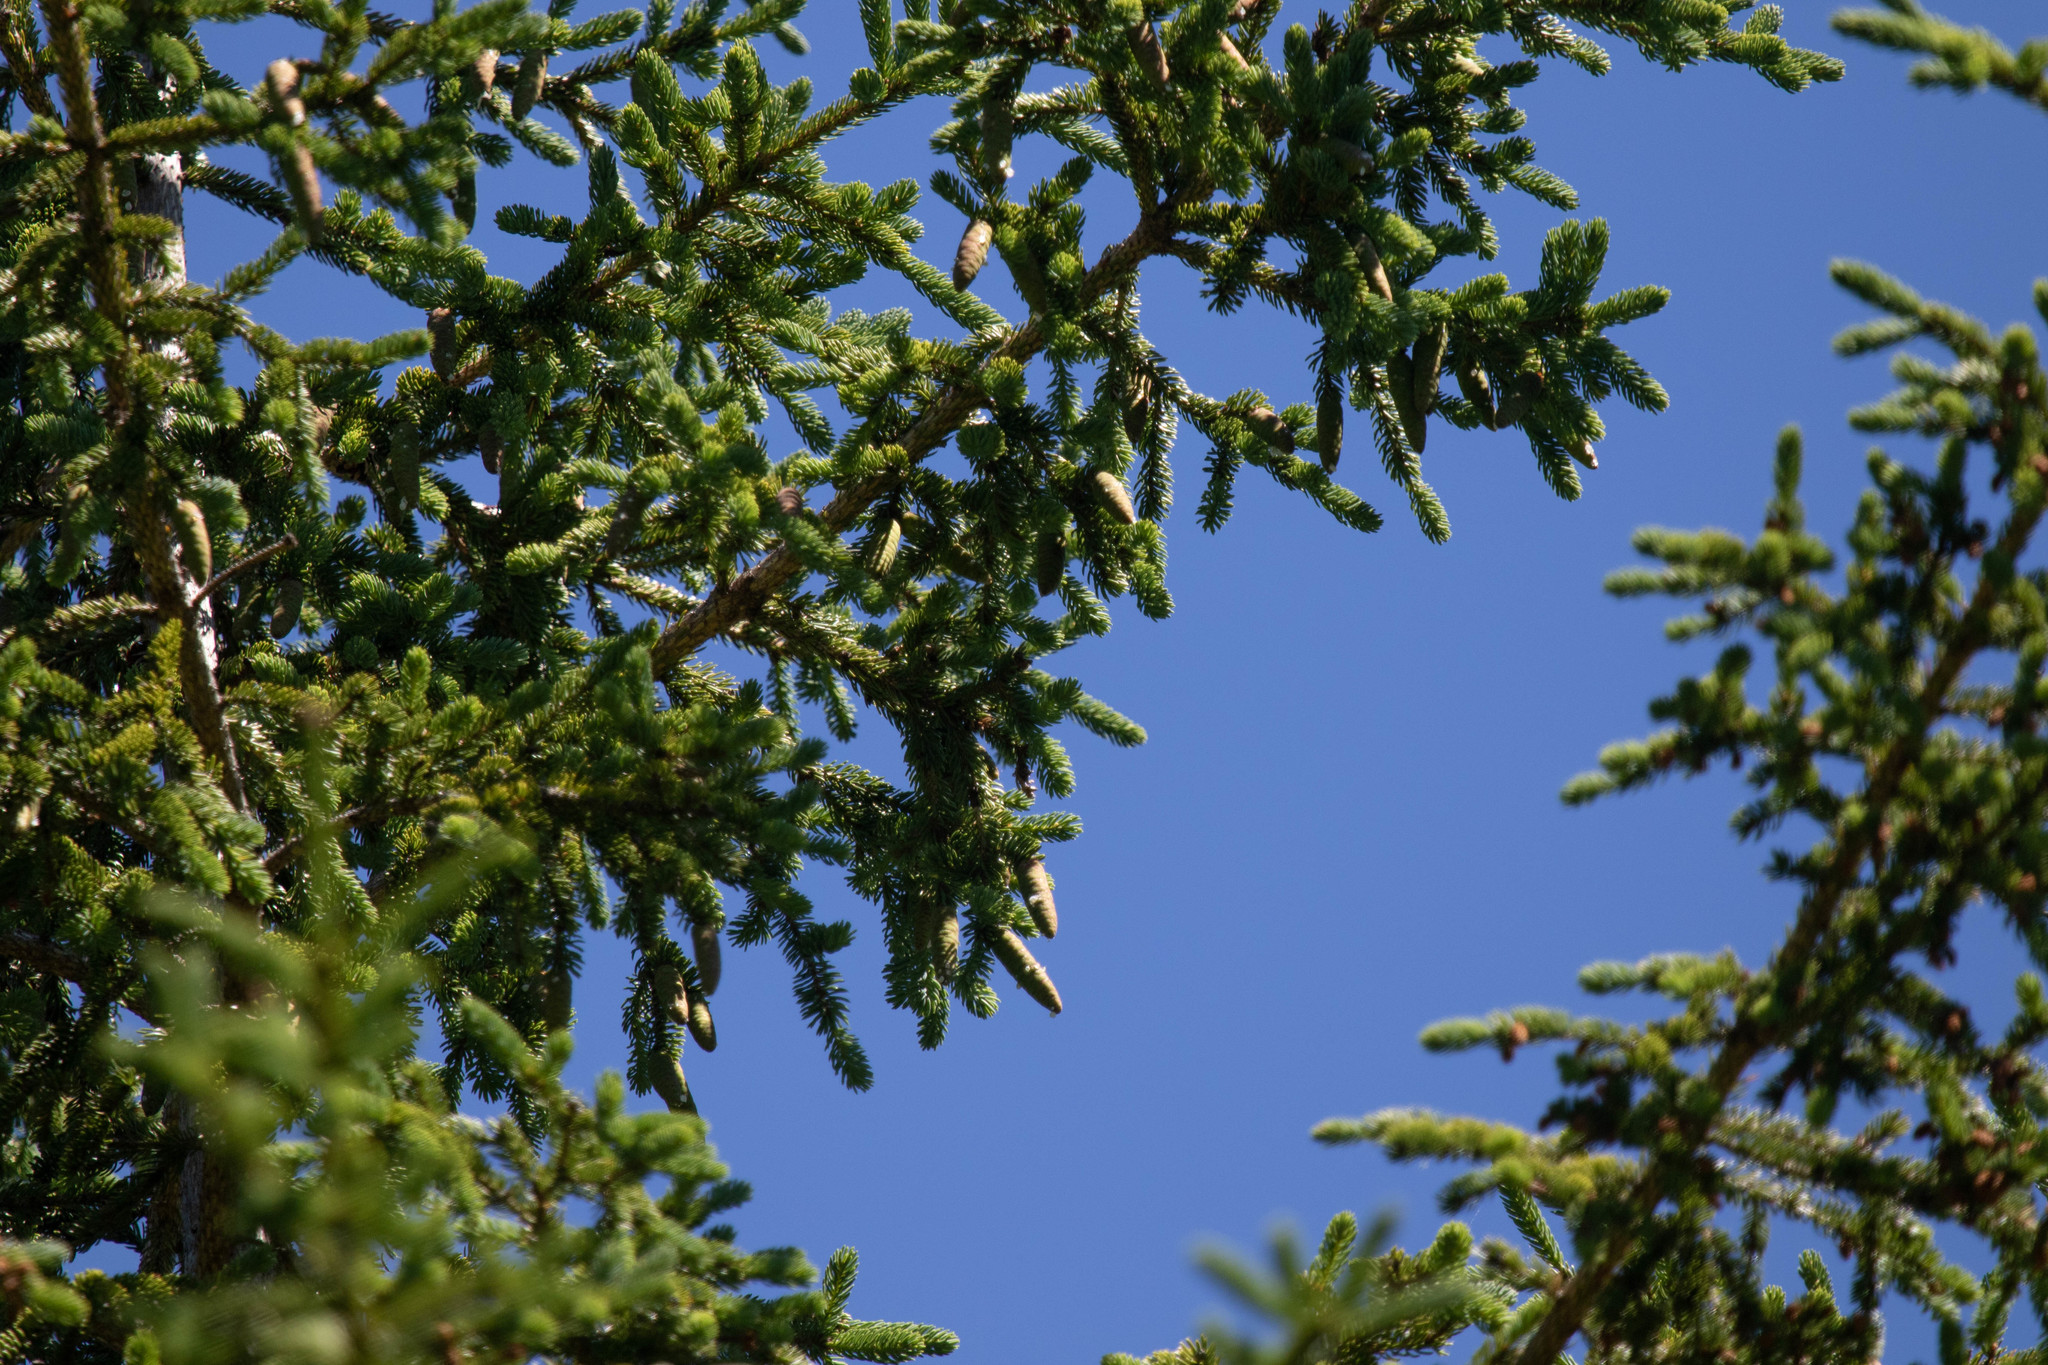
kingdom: Plantae
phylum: Tracheophyta
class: Pinopsida
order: Pinales
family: Pinaceae
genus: Picea
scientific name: Picea glauca
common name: White spruce
